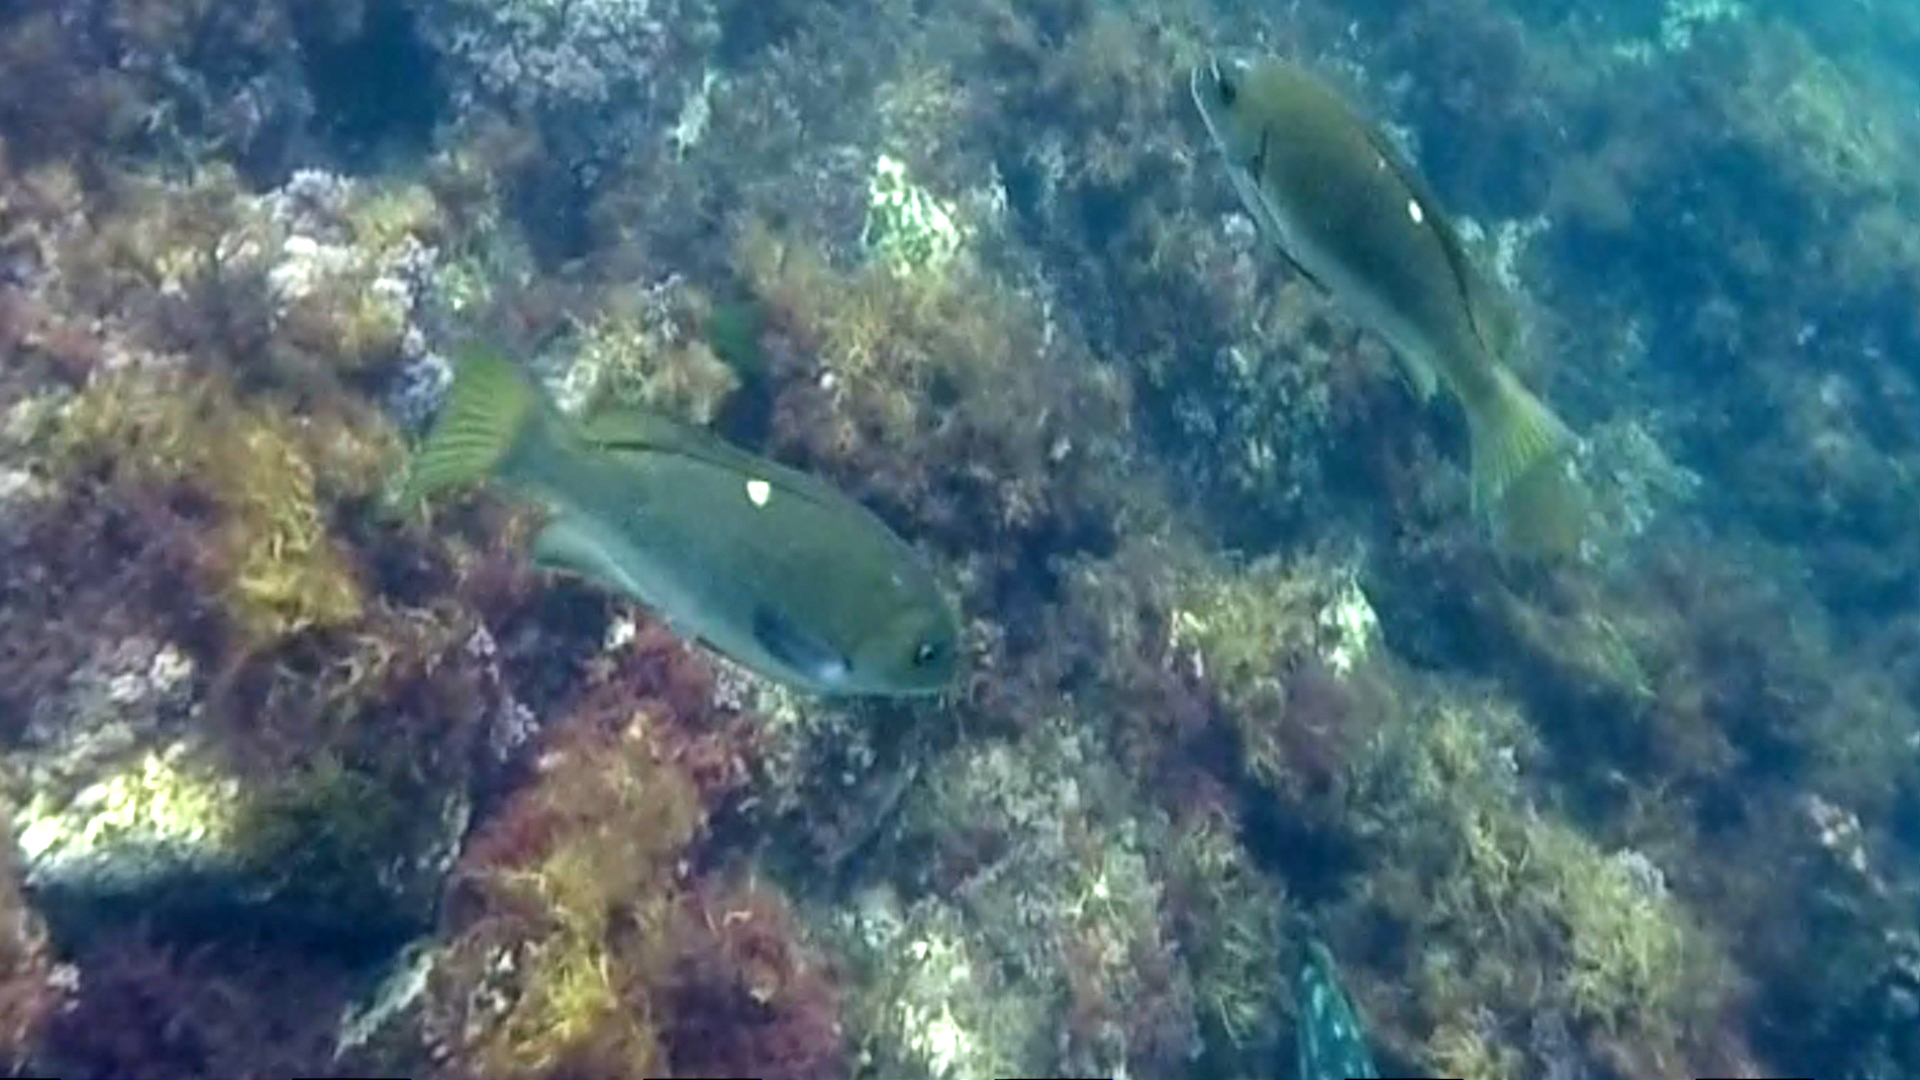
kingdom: Animalia
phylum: Chordata
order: Perciformes
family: Kyphosidae
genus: Girella
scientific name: Girella nigricans
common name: Opaleye
